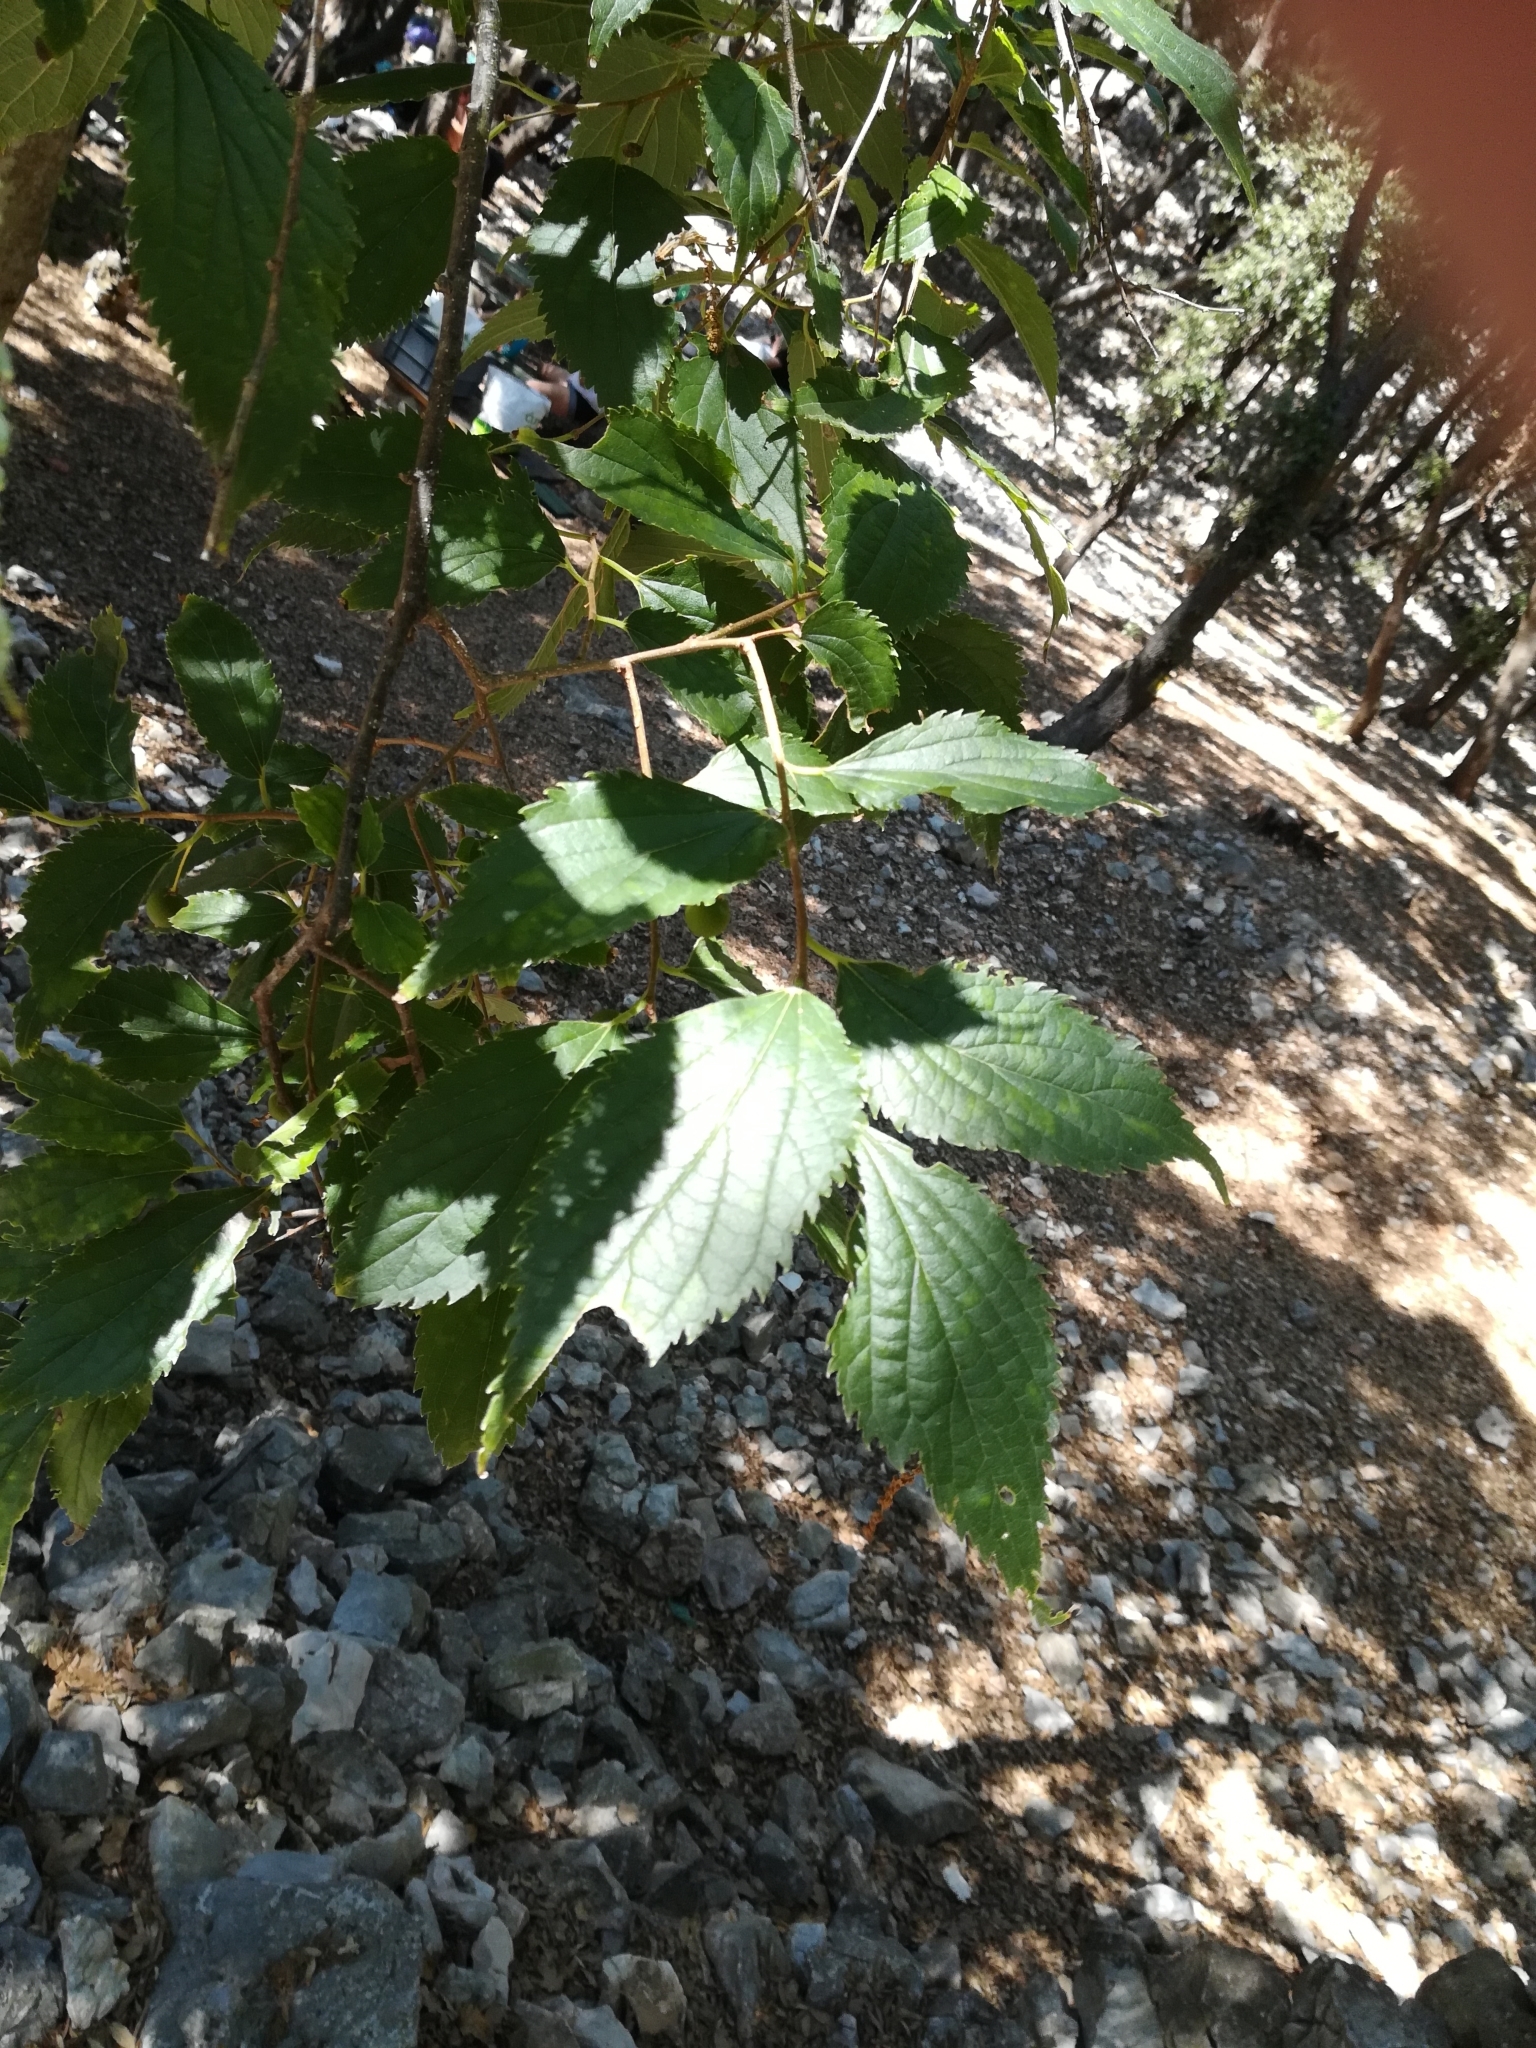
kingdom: Plantae
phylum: Tracheophyta
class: Magnoliopsida
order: Rosales
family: Cannabaceae
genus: Celtis
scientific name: Celtis australis
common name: European hackberry
